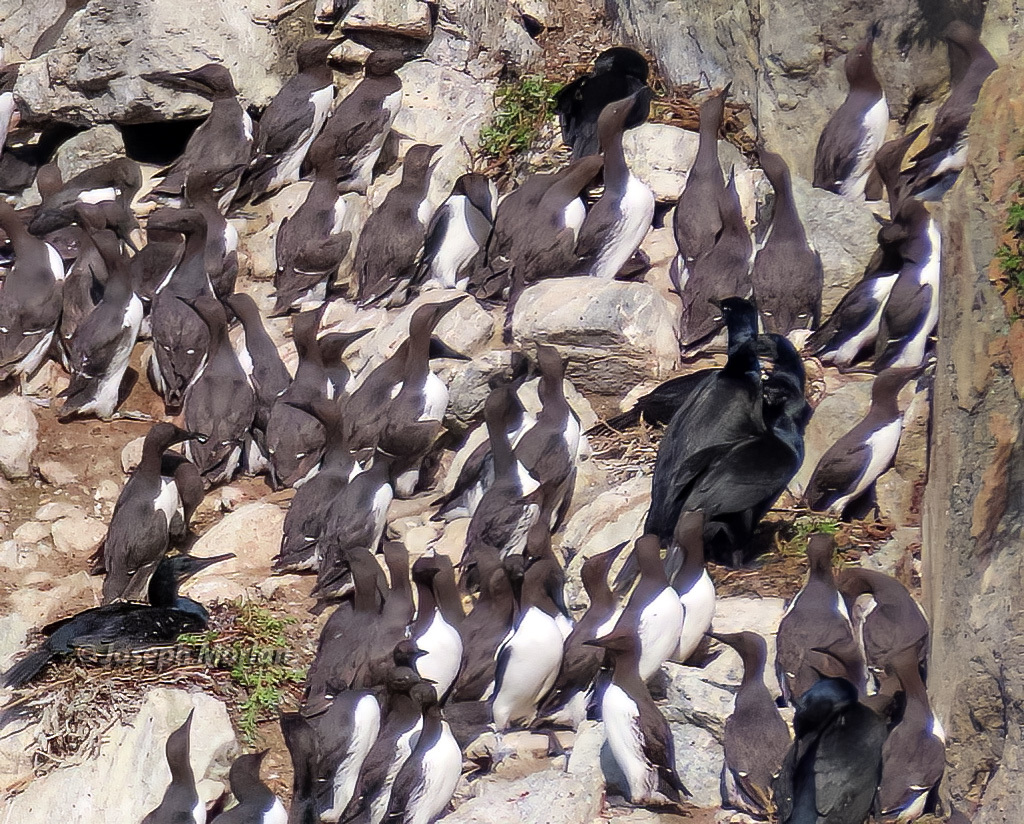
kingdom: Animalia
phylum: Chordata
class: Aves
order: Charadriiformes
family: Alcidae
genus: Uria
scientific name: Uria aalge
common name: Common murre
